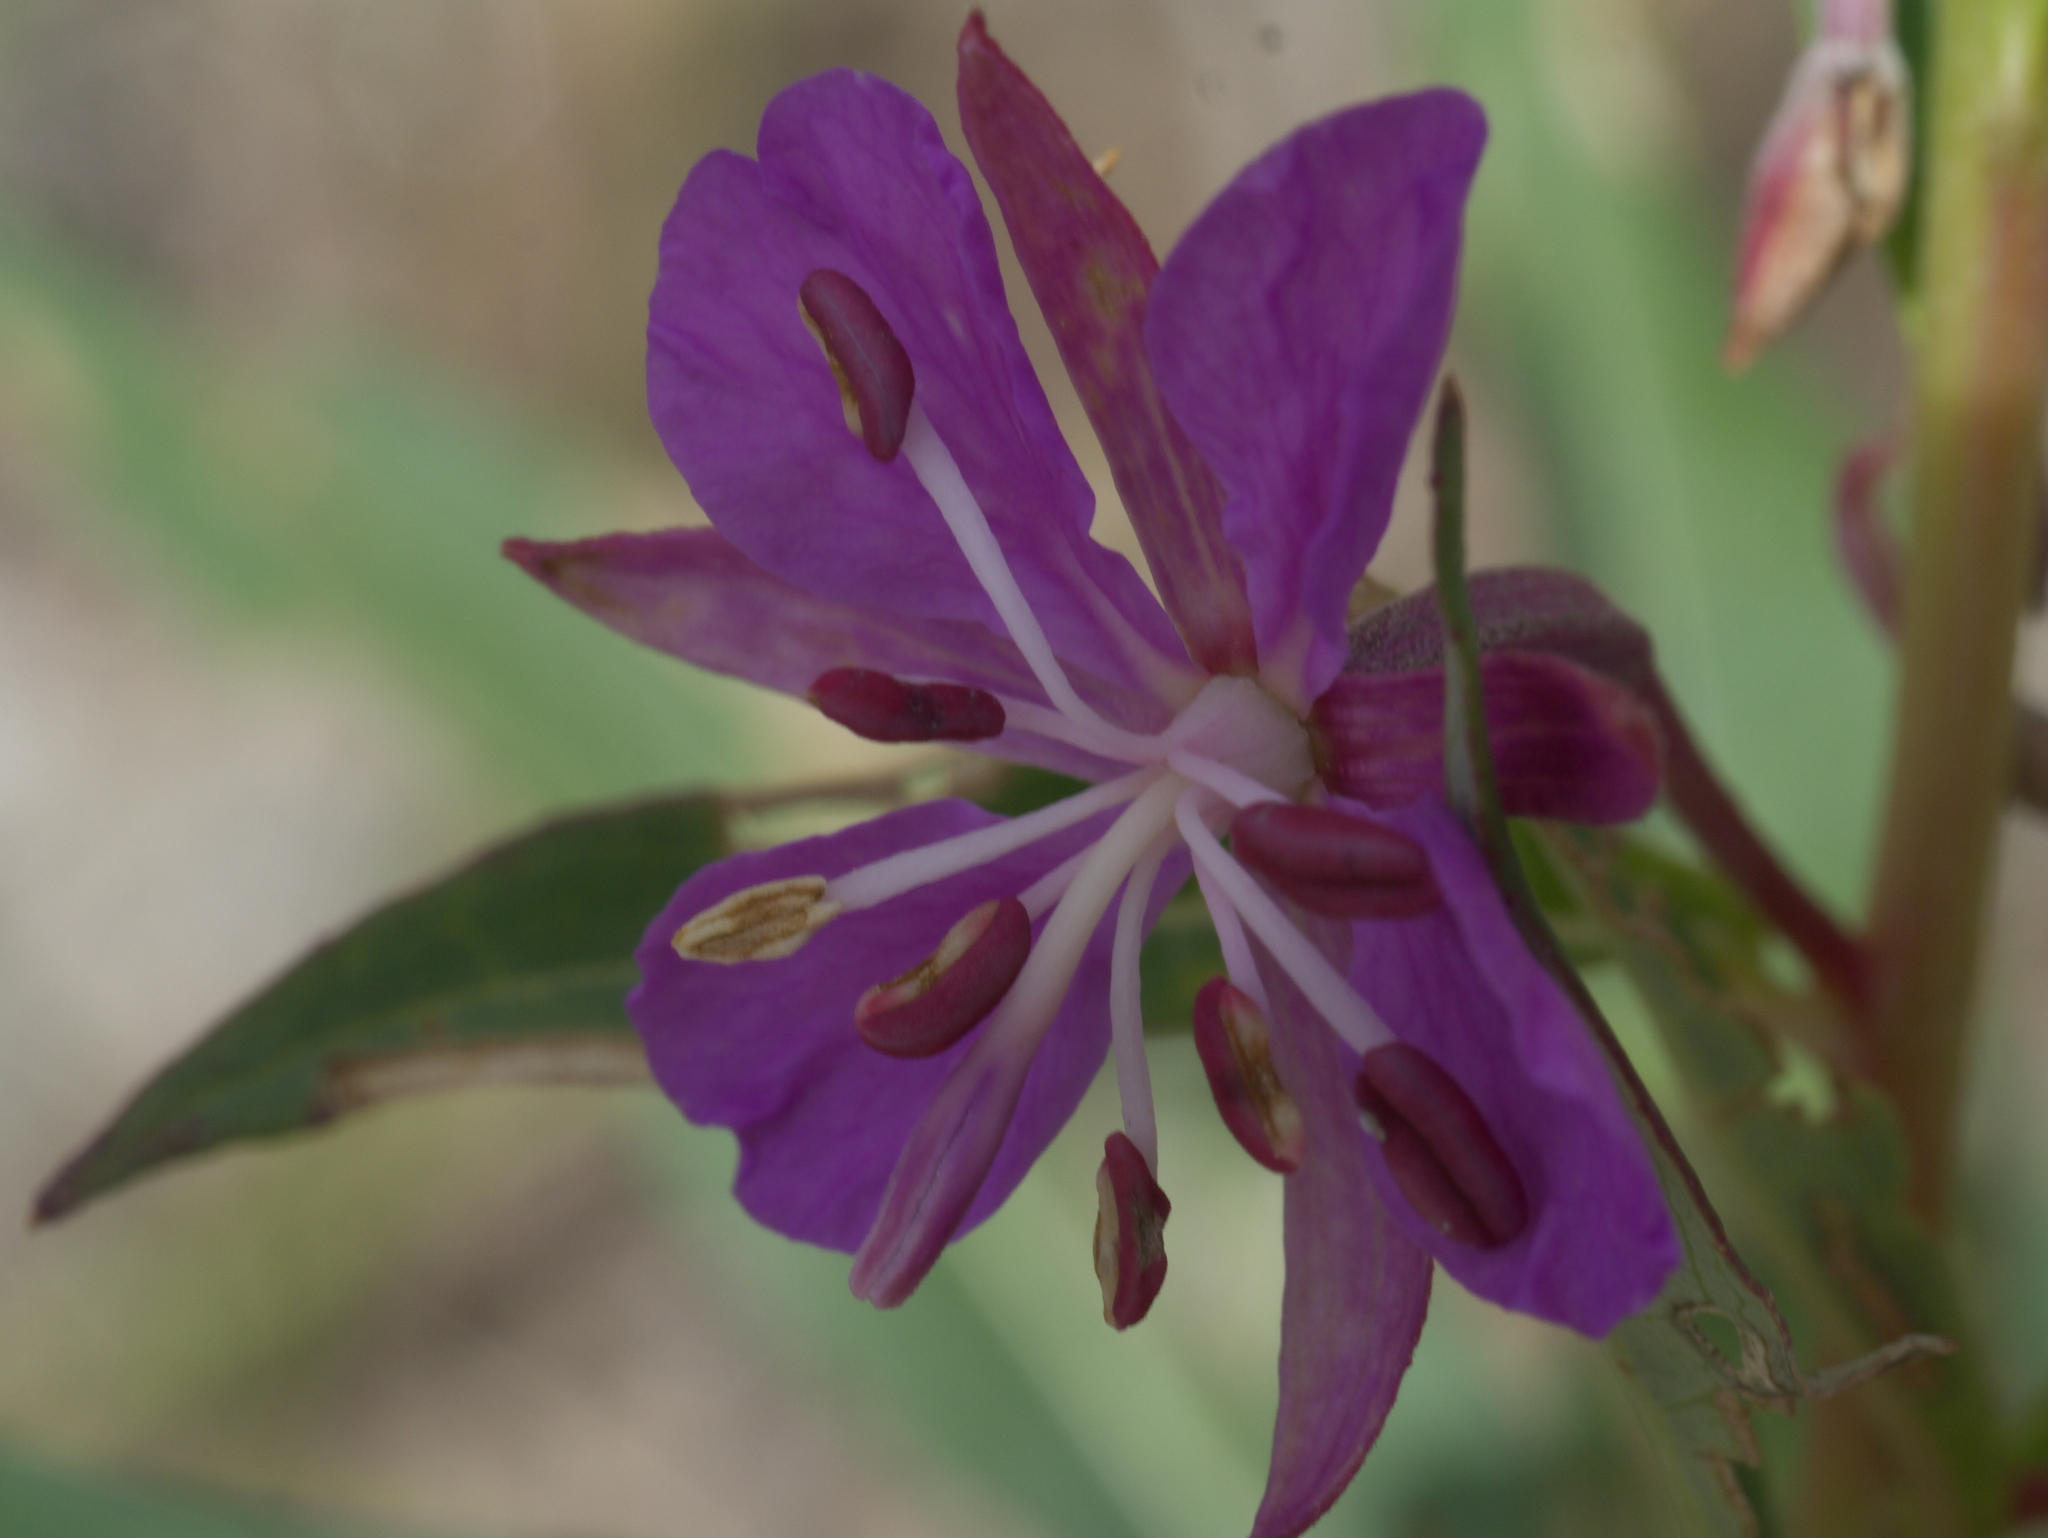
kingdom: Plantae
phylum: Tracheophyta
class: Magnoliopsida
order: Myrtales
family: Onagraceae
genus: Chamaenerion
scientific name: Chamaenerion angustifolium
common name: Fireweed
